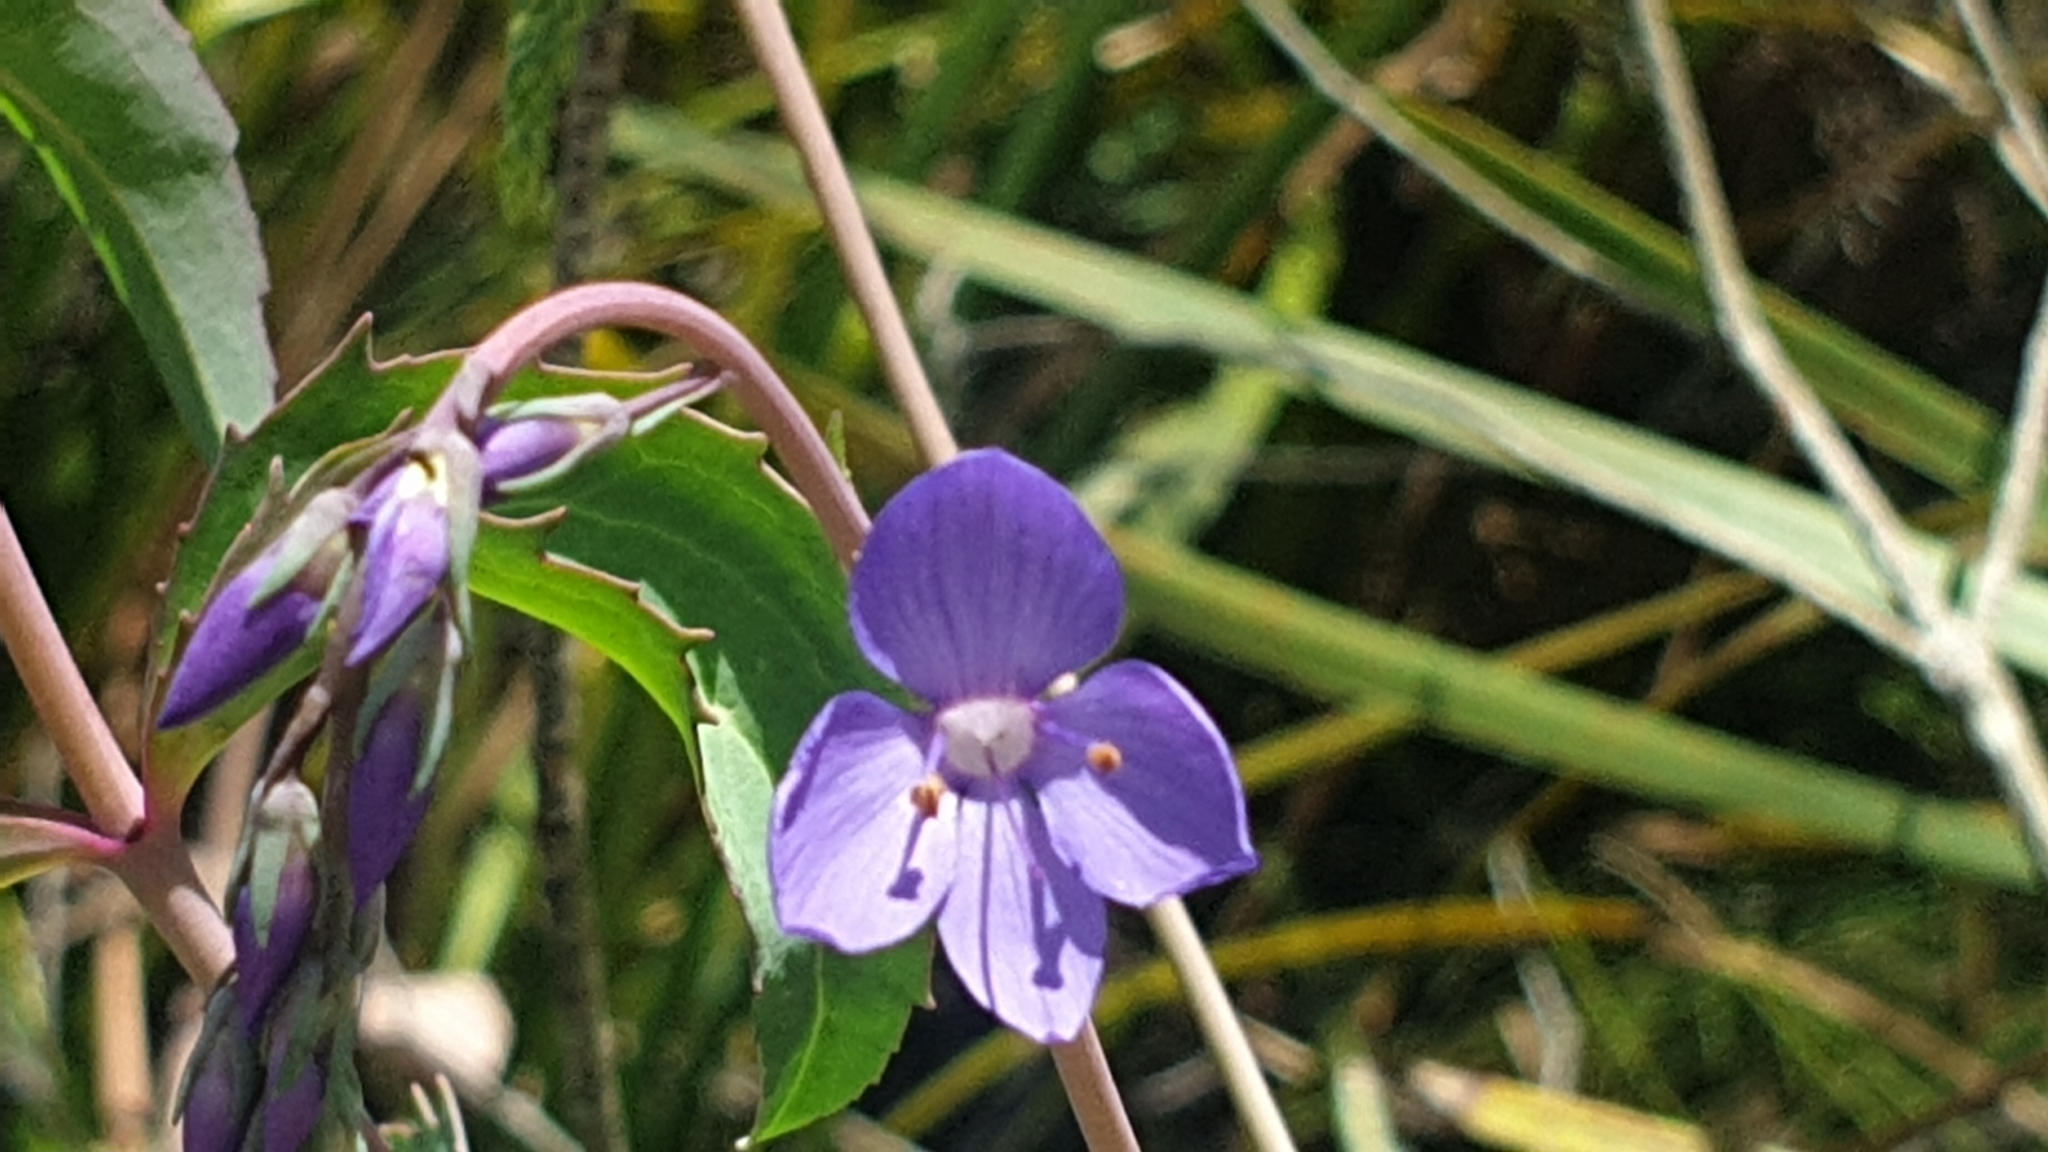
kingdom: Plantae
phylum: Tracheophyta
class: Magnoliopsida
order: Lamiales
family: Plantaginaceae
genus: Veronica
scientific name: Veronica arcuata
